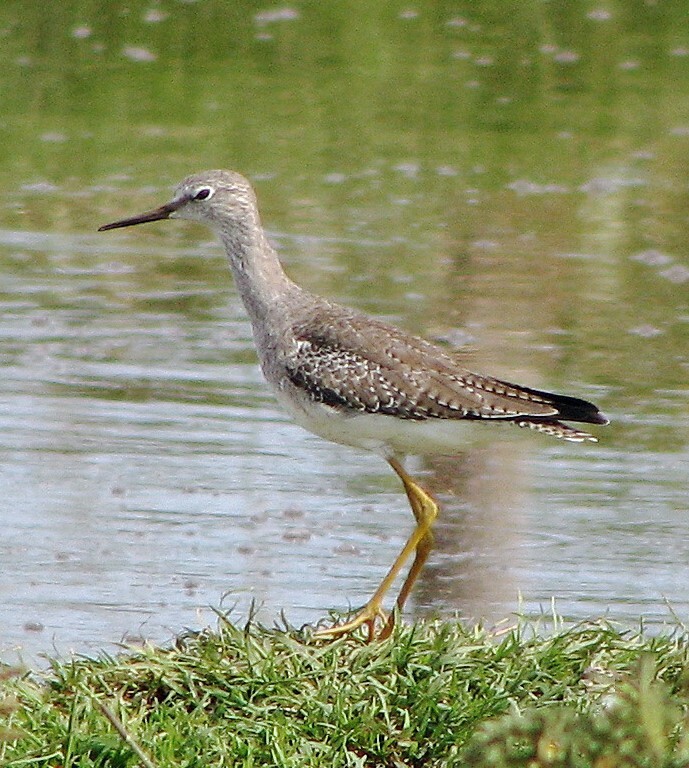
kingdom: Animalia
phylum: Chordata
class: Aves
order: Charadriiformes
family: Scolopacidae
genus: Tringa
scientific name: Tringa flavipes
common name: Lesser yellowlegs
